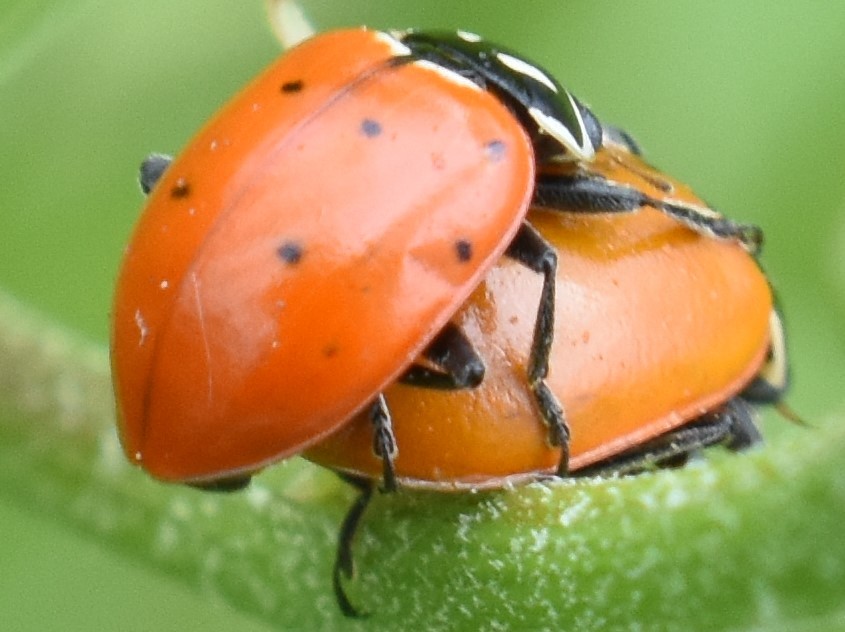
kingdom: Animalia
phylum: Arthropoda
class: Insecta
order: Coleoptera
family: Coccinellidae
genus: Hippodamia
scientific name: Hippodamia convergens
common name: Convergent lady beetle
